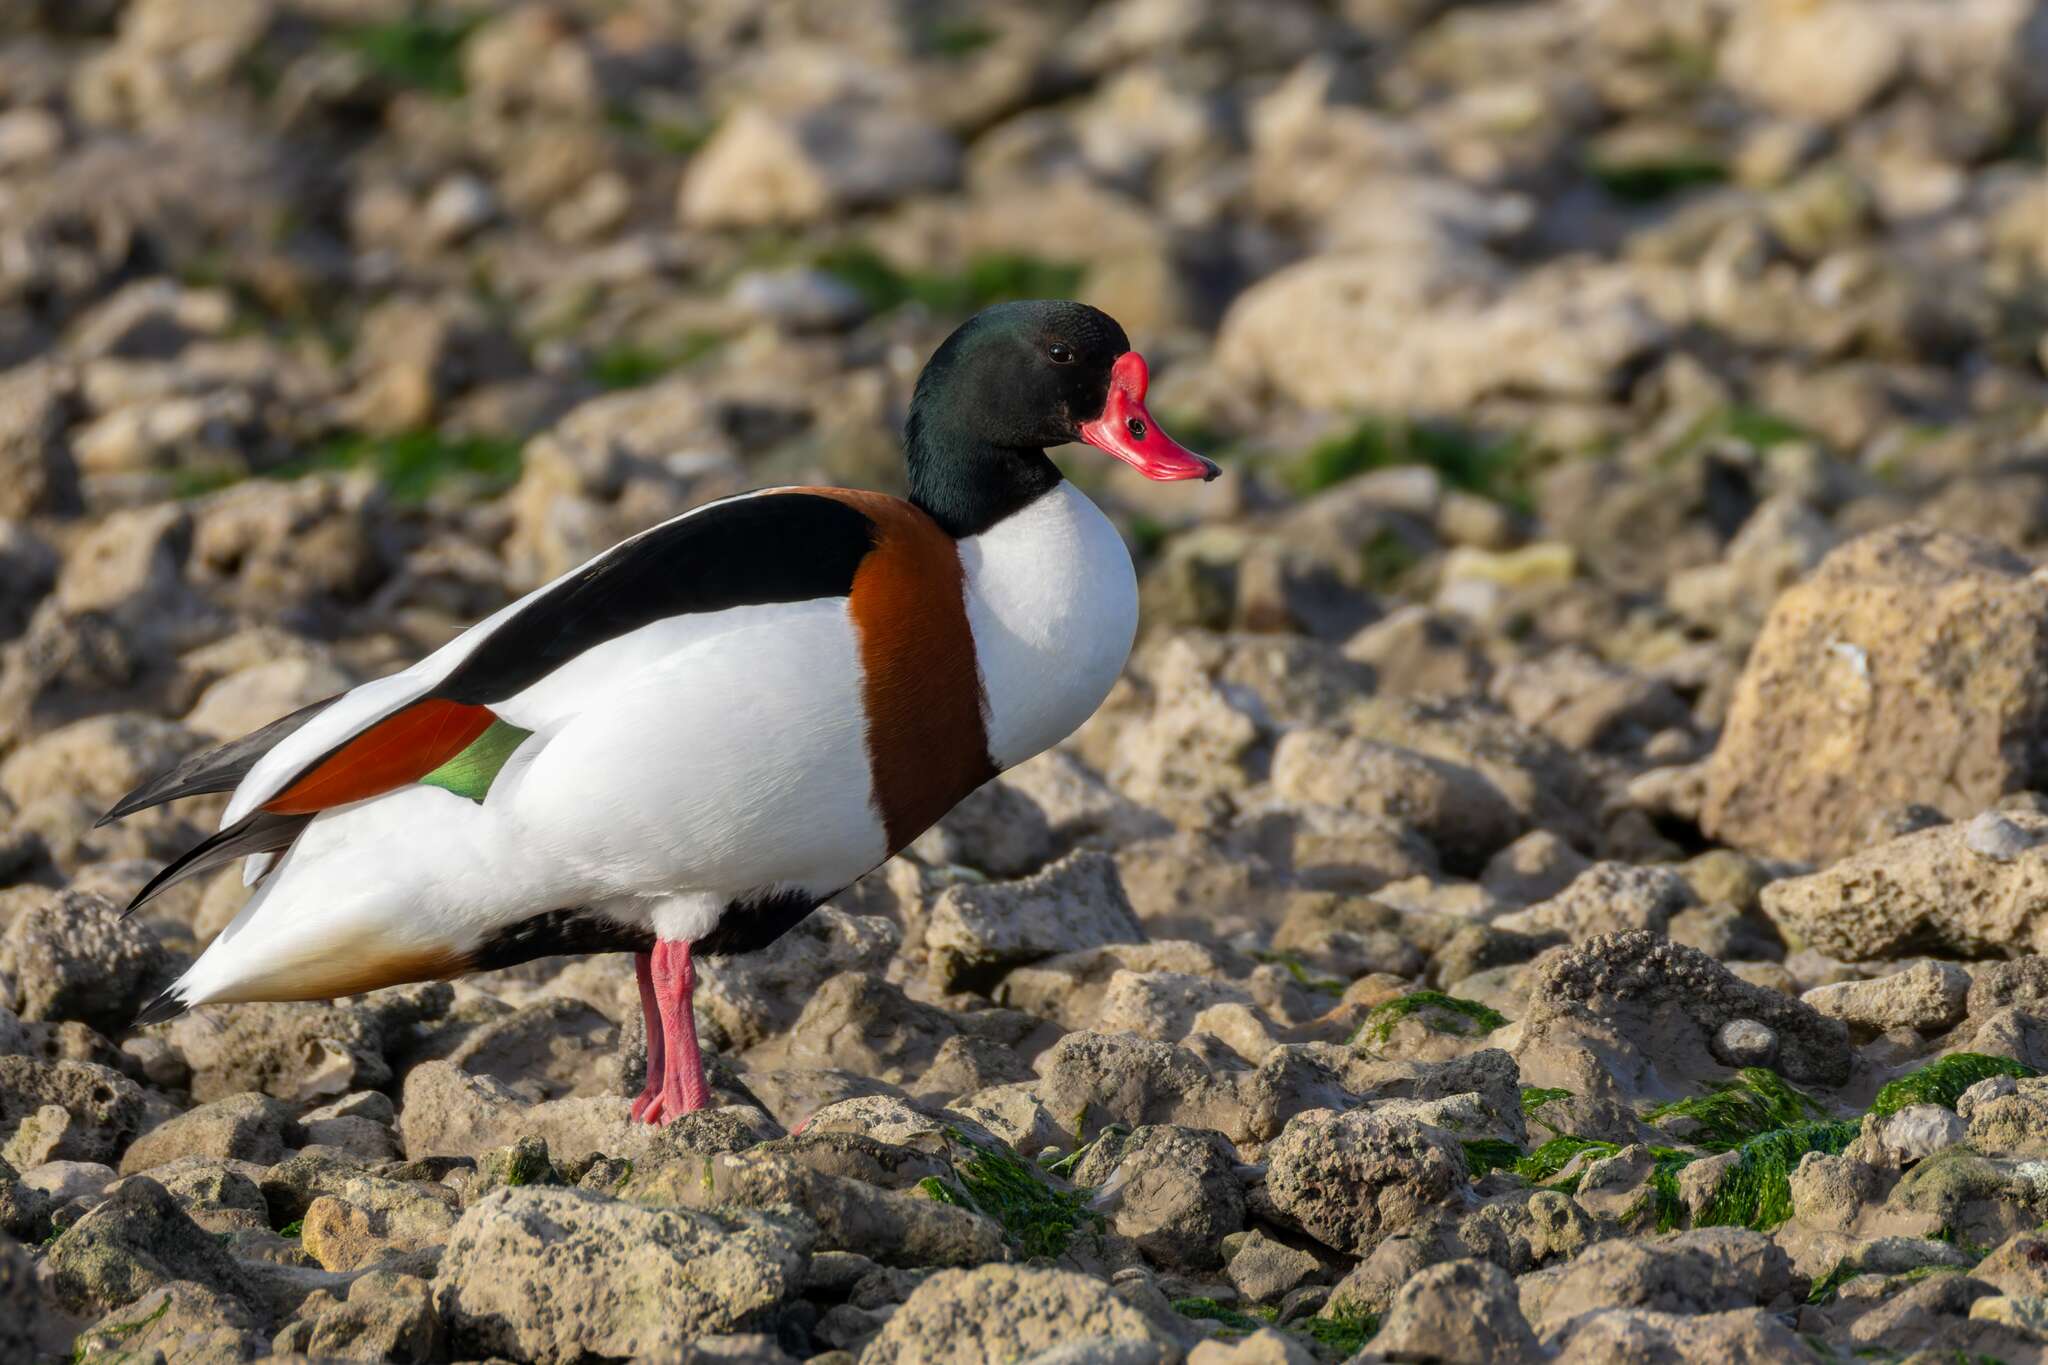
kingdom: Animalia
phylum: Chordata
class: Aves
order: Anseriformes
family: Anatidae
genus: Tadorna
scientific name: Tadorna tadorna
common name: Common shelduck
